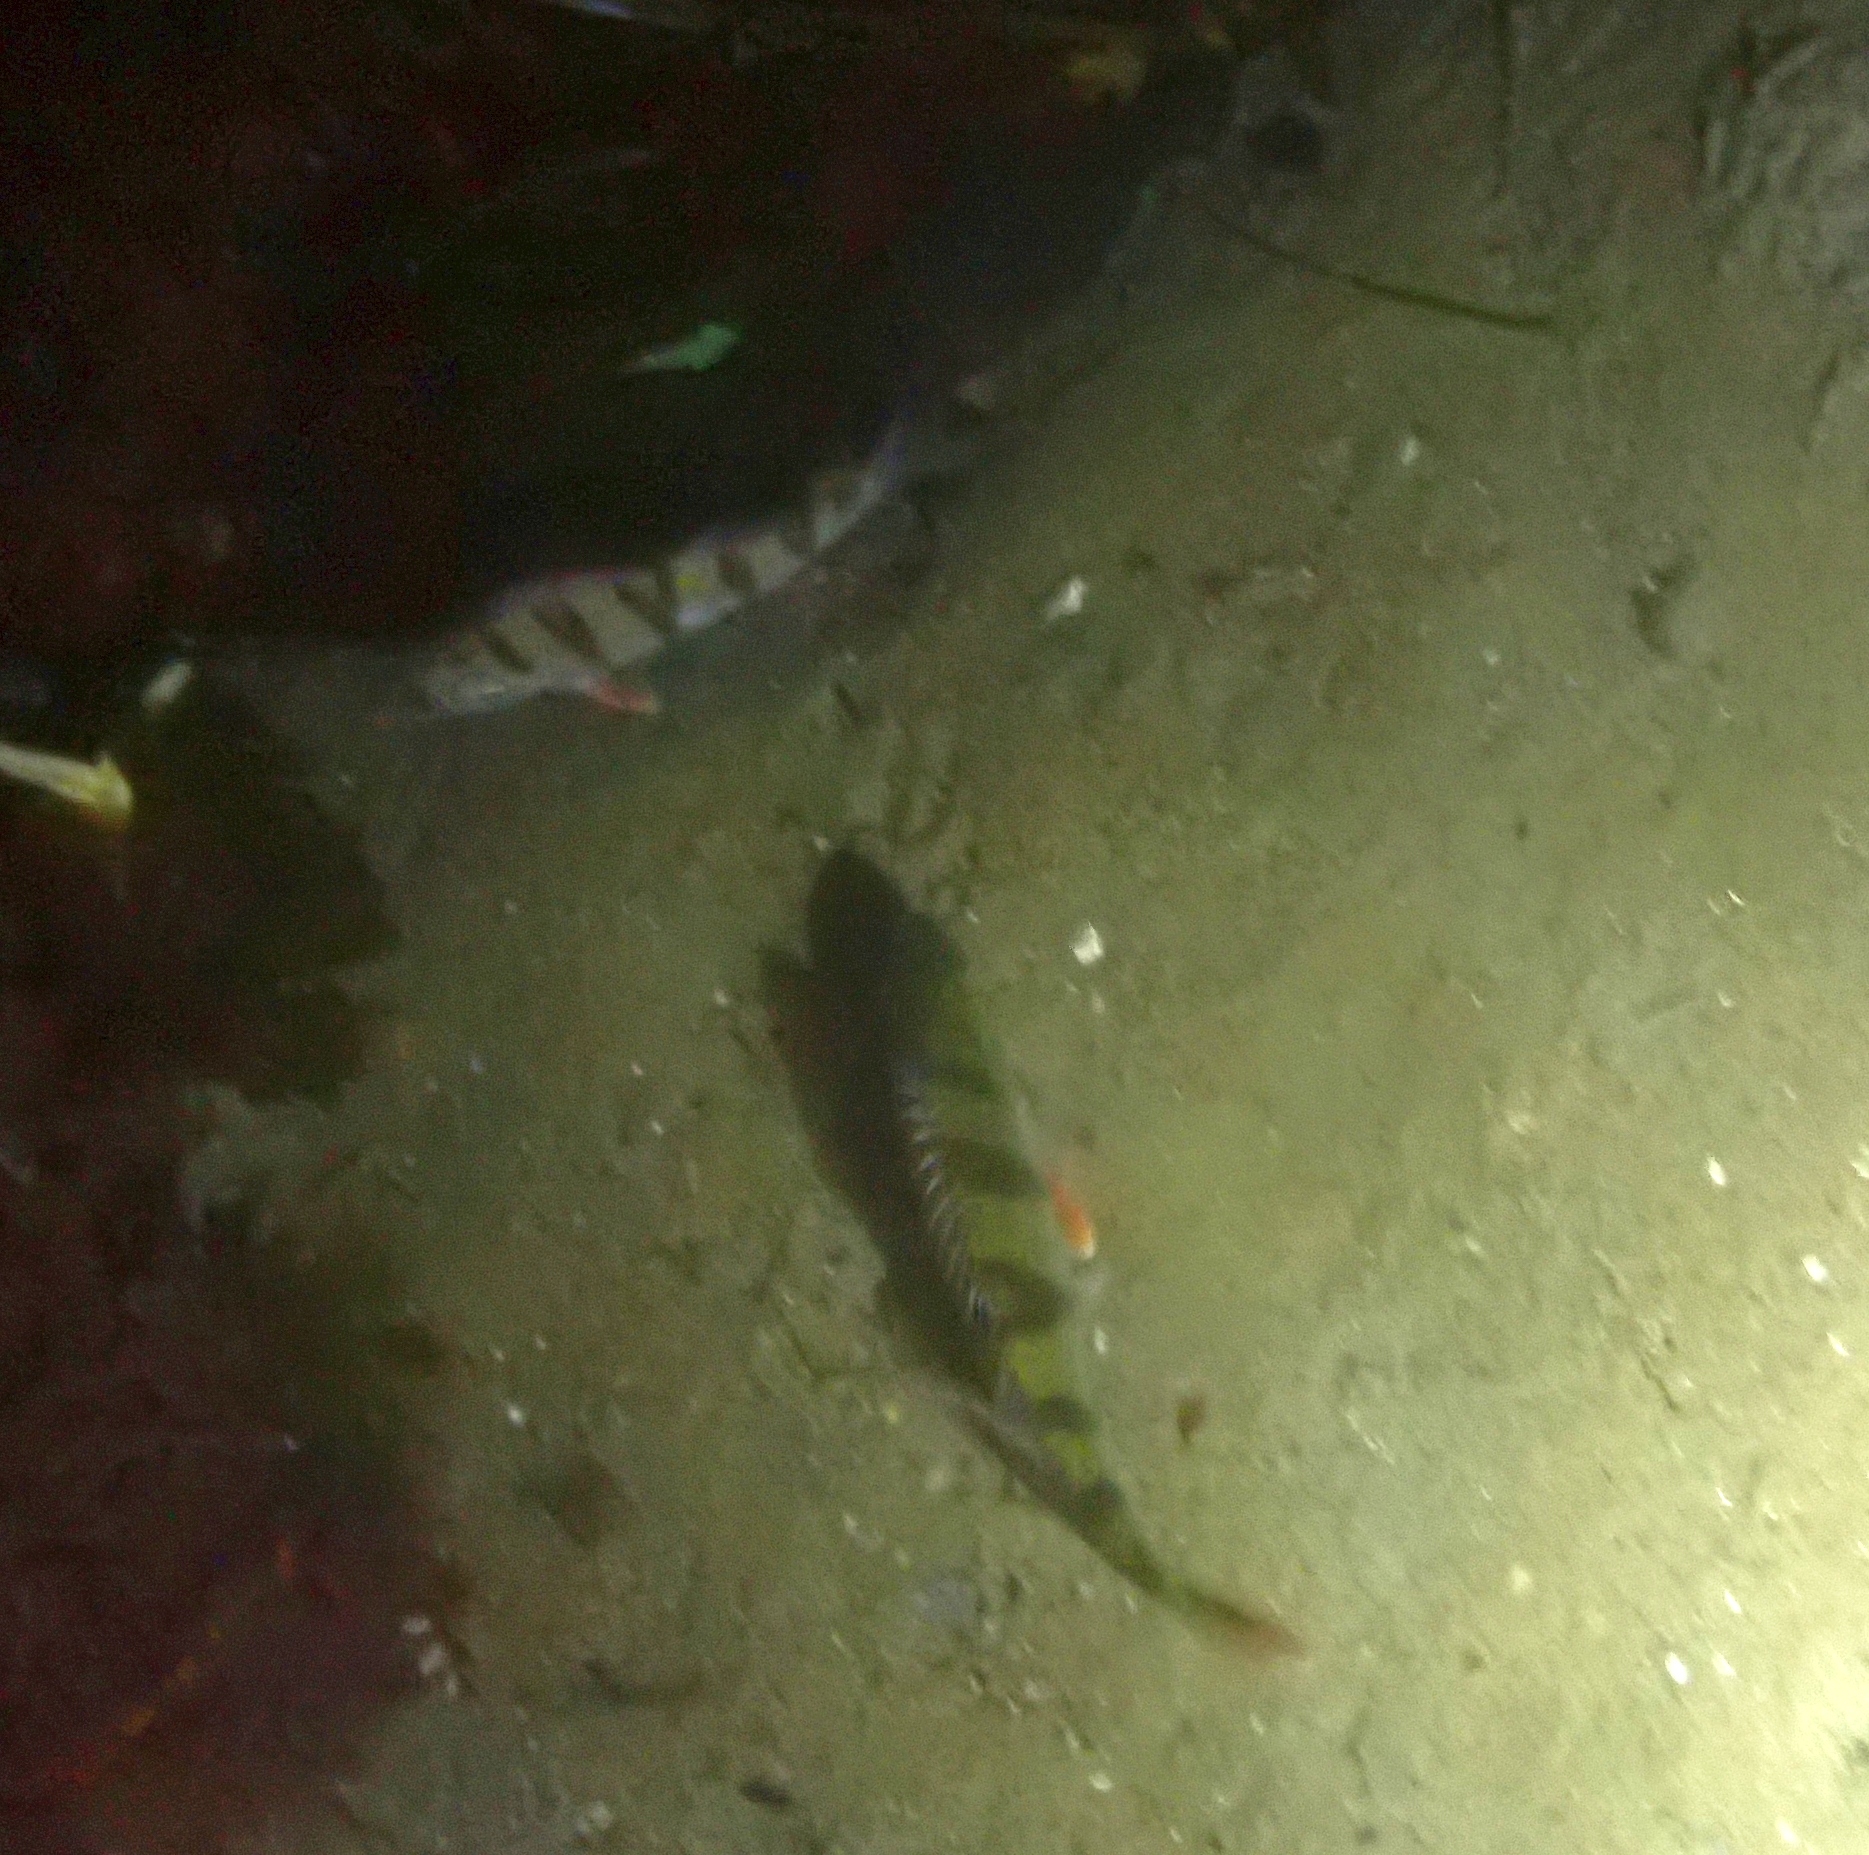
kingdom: Animalia
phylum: Chordata
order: Perciformes
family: Percidae
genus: Perca
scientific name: Perca fluviatilis
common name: Perch
